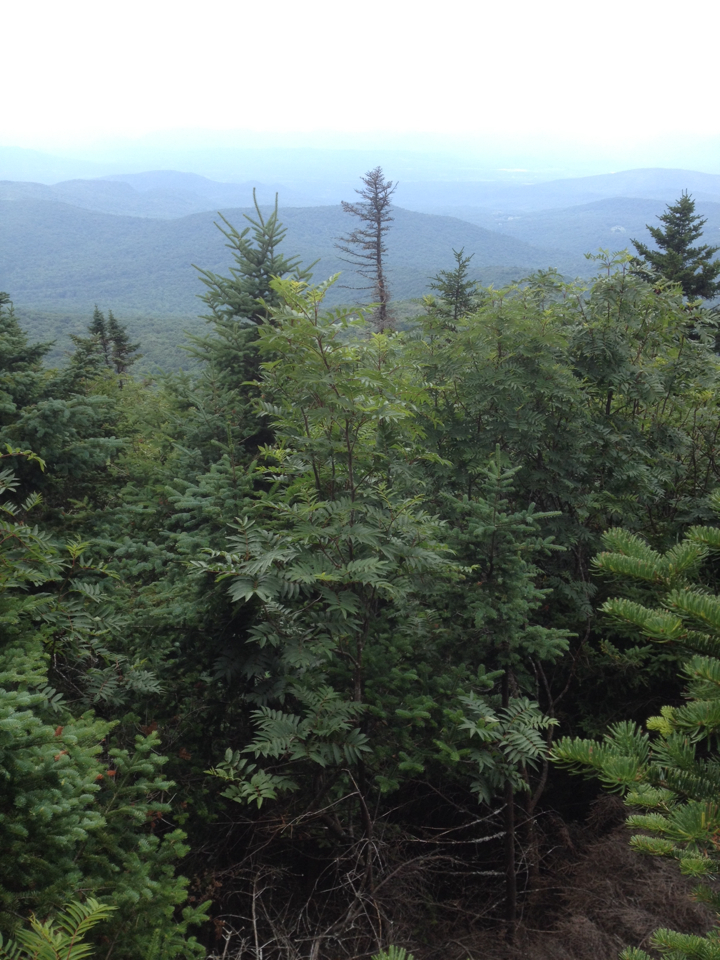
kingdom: Plantae
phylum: Tracheophyta
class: Pinopsida
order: Pinales
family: Pinaceae
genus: Picea
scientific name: Picea rubens
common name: Red spruce
